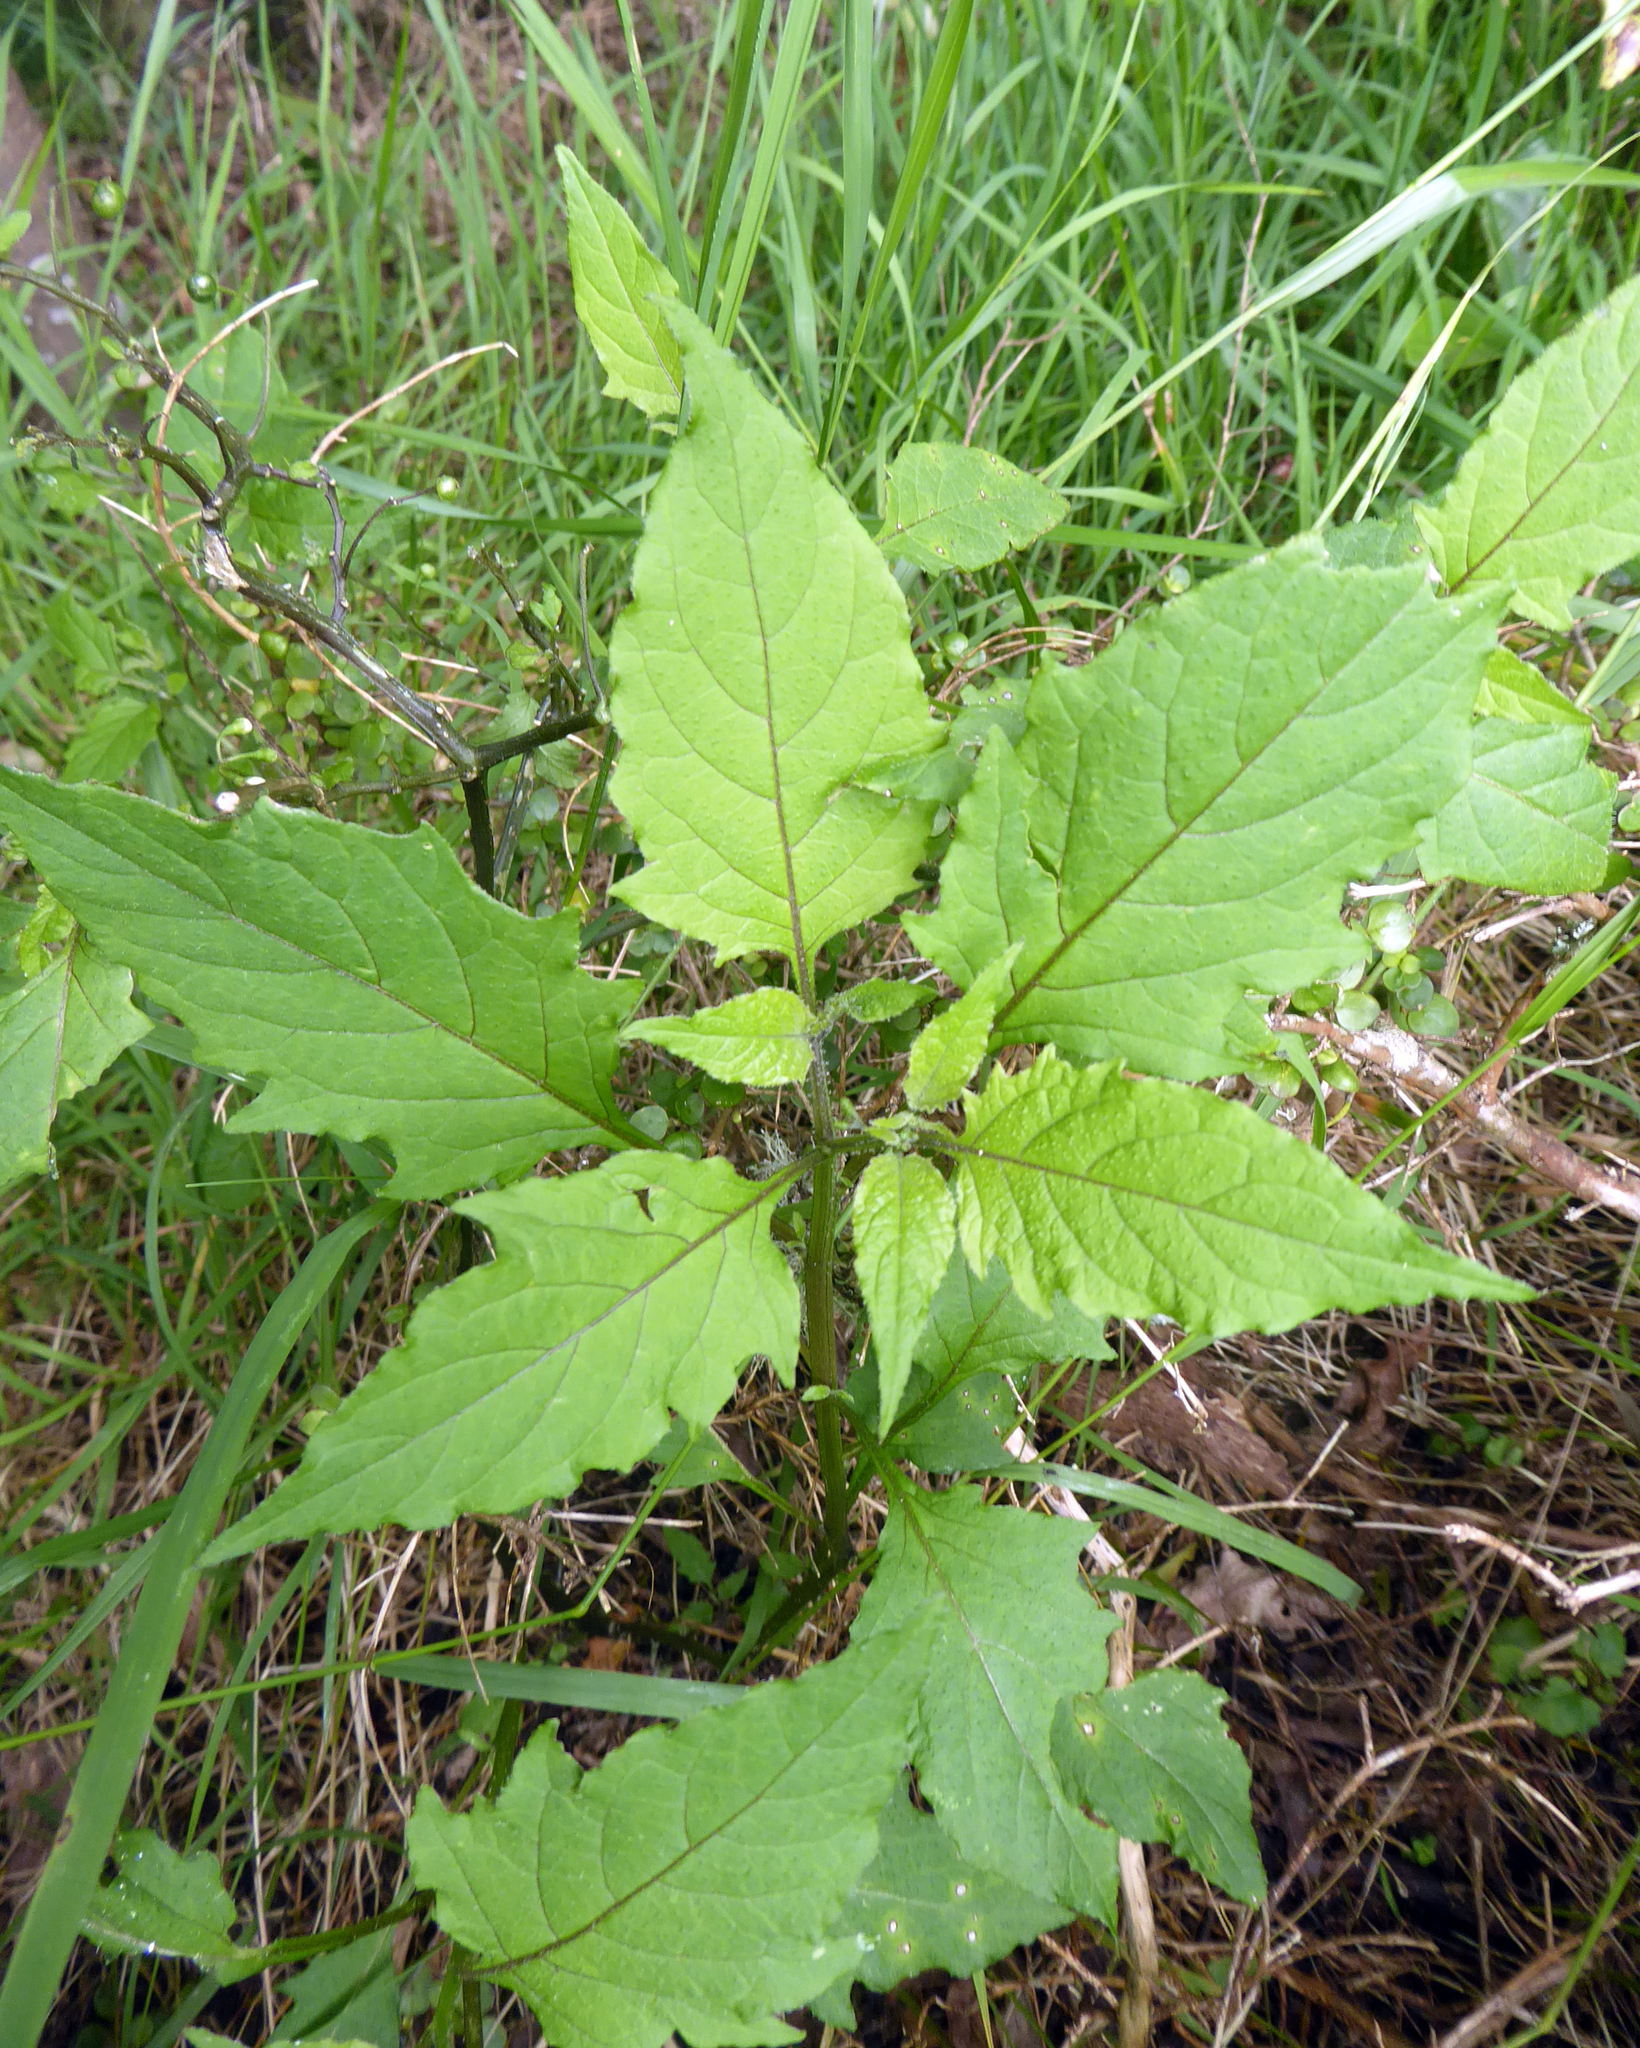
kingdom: Plantae
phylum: Tracheophyta
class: Magnoliopsida
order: Solanales
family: Solanaceae
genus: Solanum
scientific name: Solanum americanum
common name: American black nightshade
